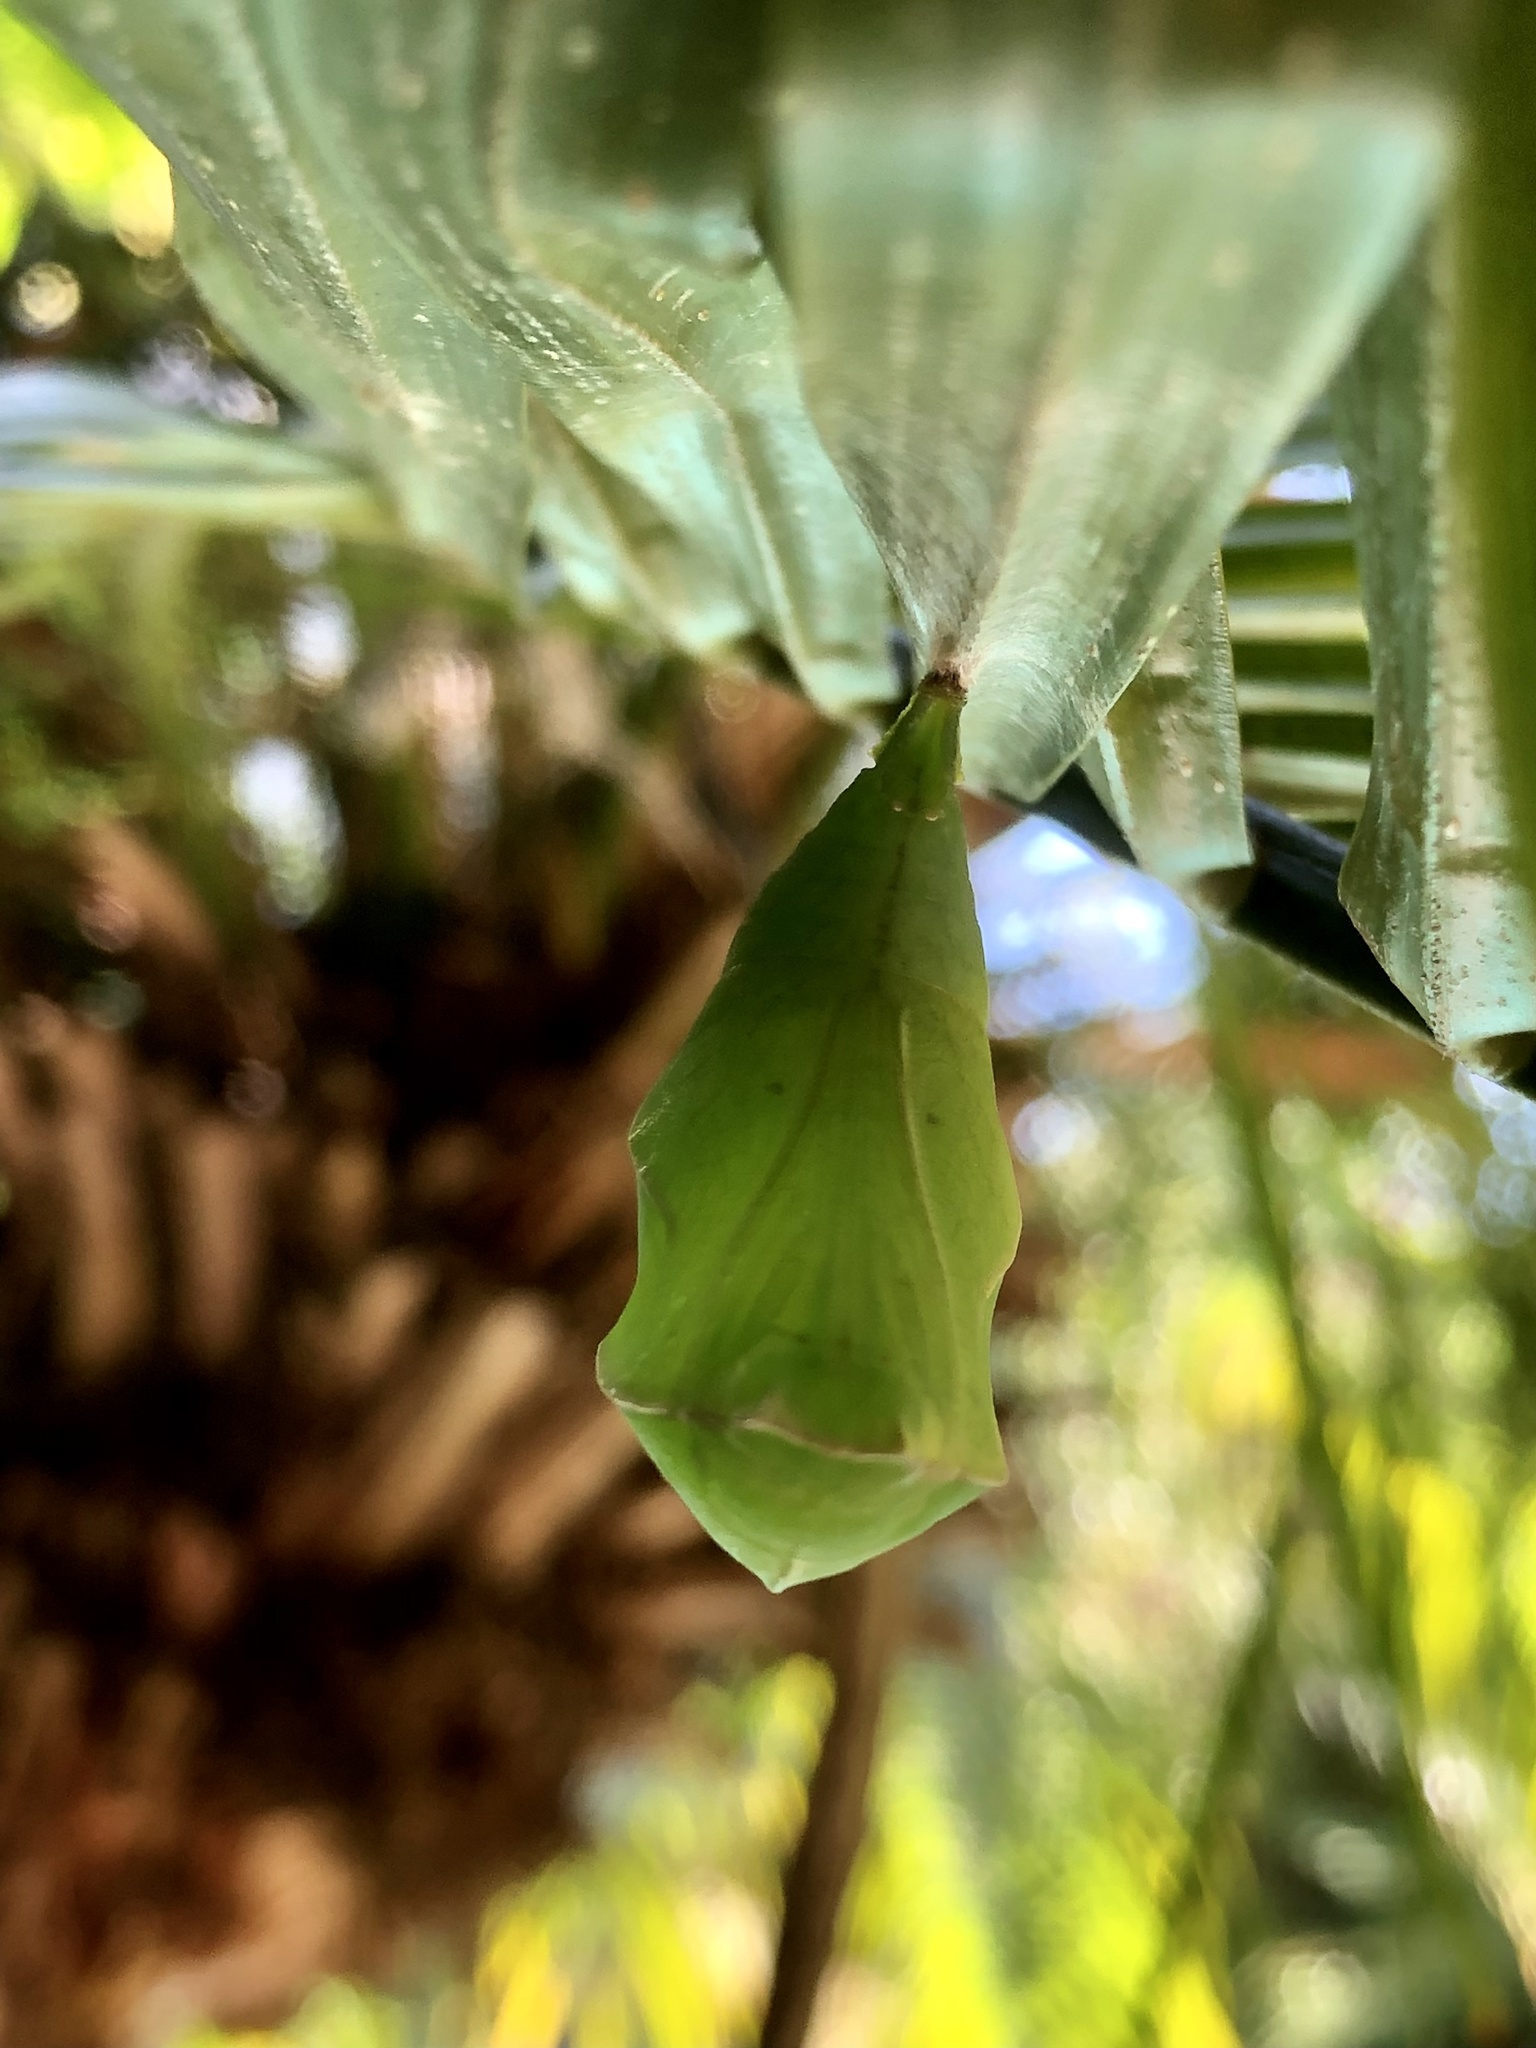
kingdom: Animalia
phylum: Arthropoda
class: Insecta
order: Lepidoptera
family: Nymphalidae
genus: Opsiphanes
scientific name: Opsiphanes invirae
